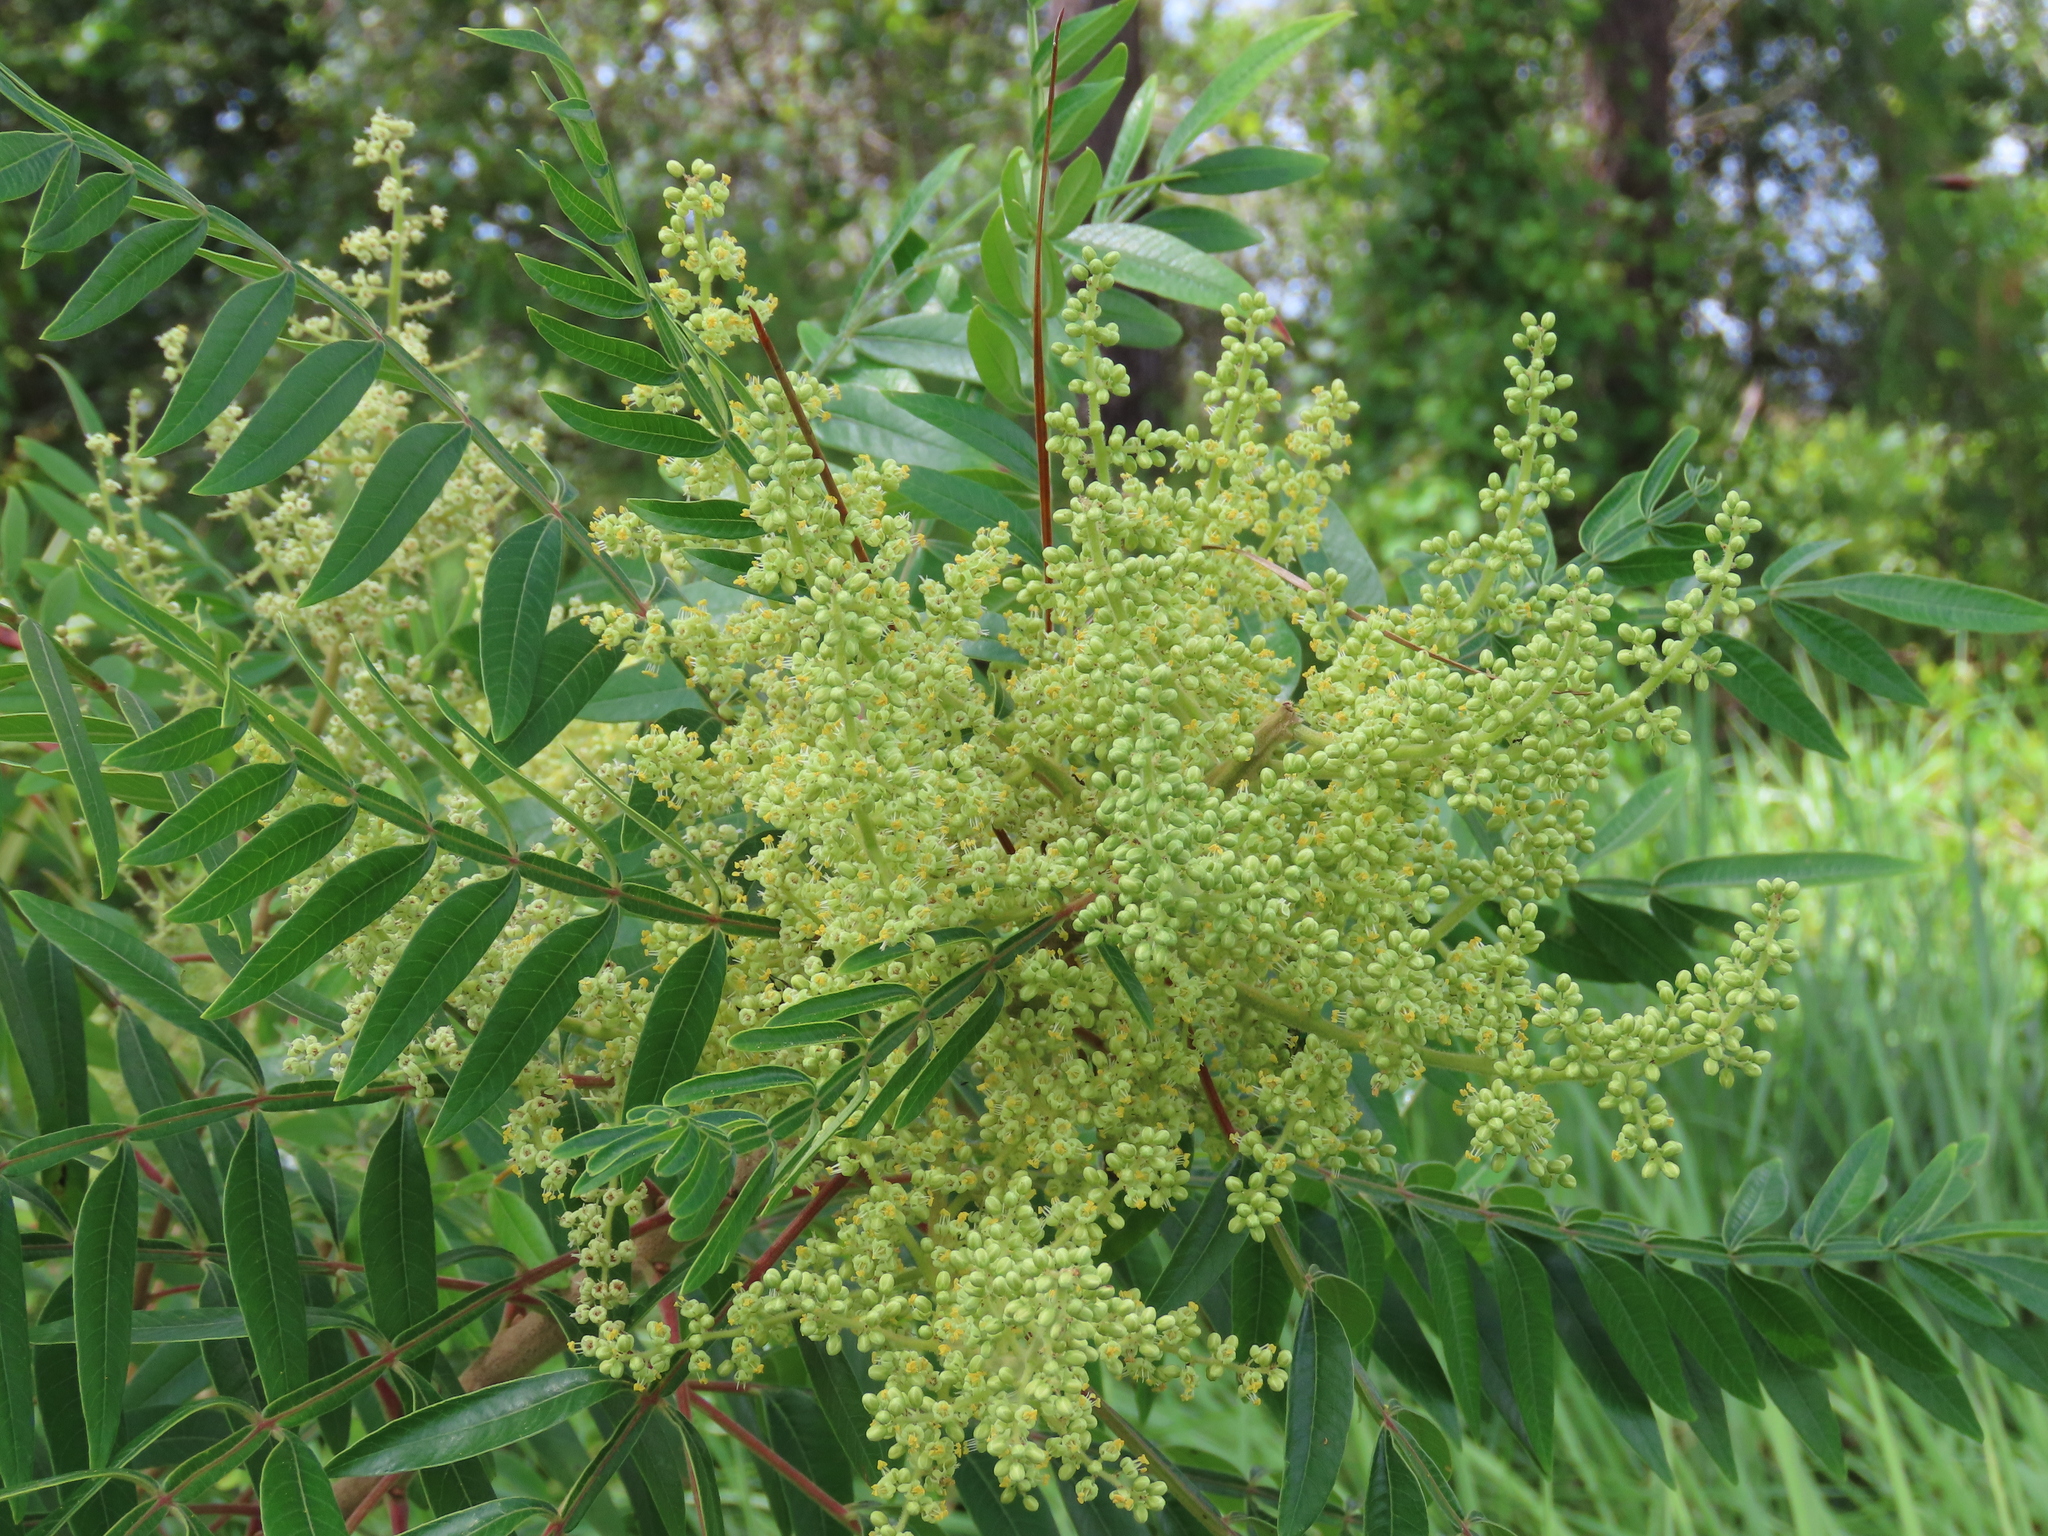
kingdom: Plantae
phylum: Tracheophyta
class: Magnoliopsida
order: Sapindales
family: Anacardiaceae
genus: Rhus
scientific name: Rhus copallina
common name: Shining sumac
